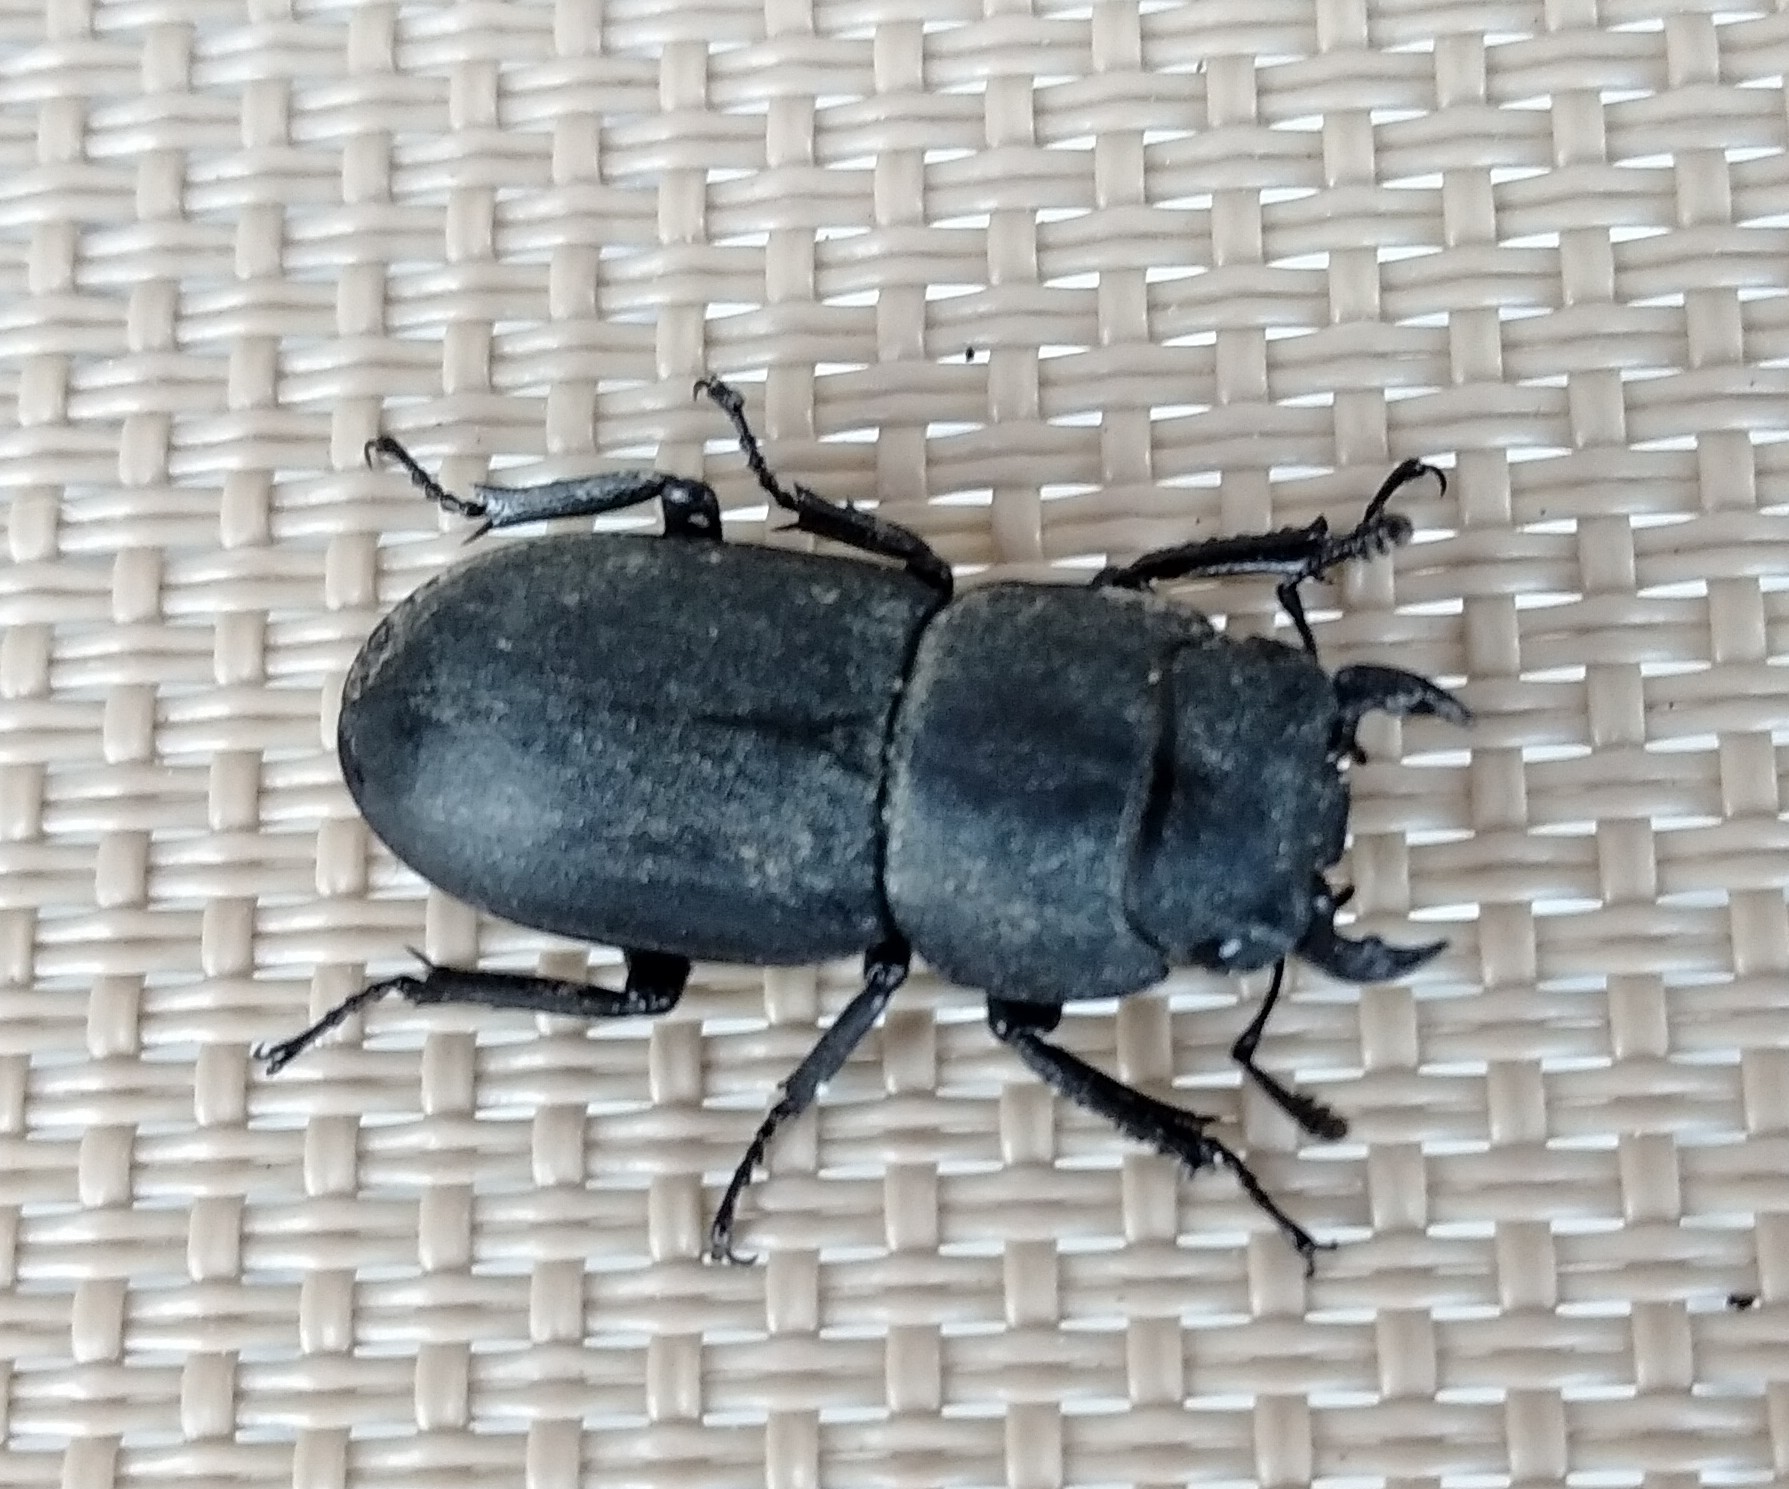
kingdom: Animalia
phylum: Arthropoda
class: Insecta
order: Coleoptera
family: Lucanidae
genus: Dorcus
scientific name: Dorcus parallelipipedus
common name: Lesser stag beetle
